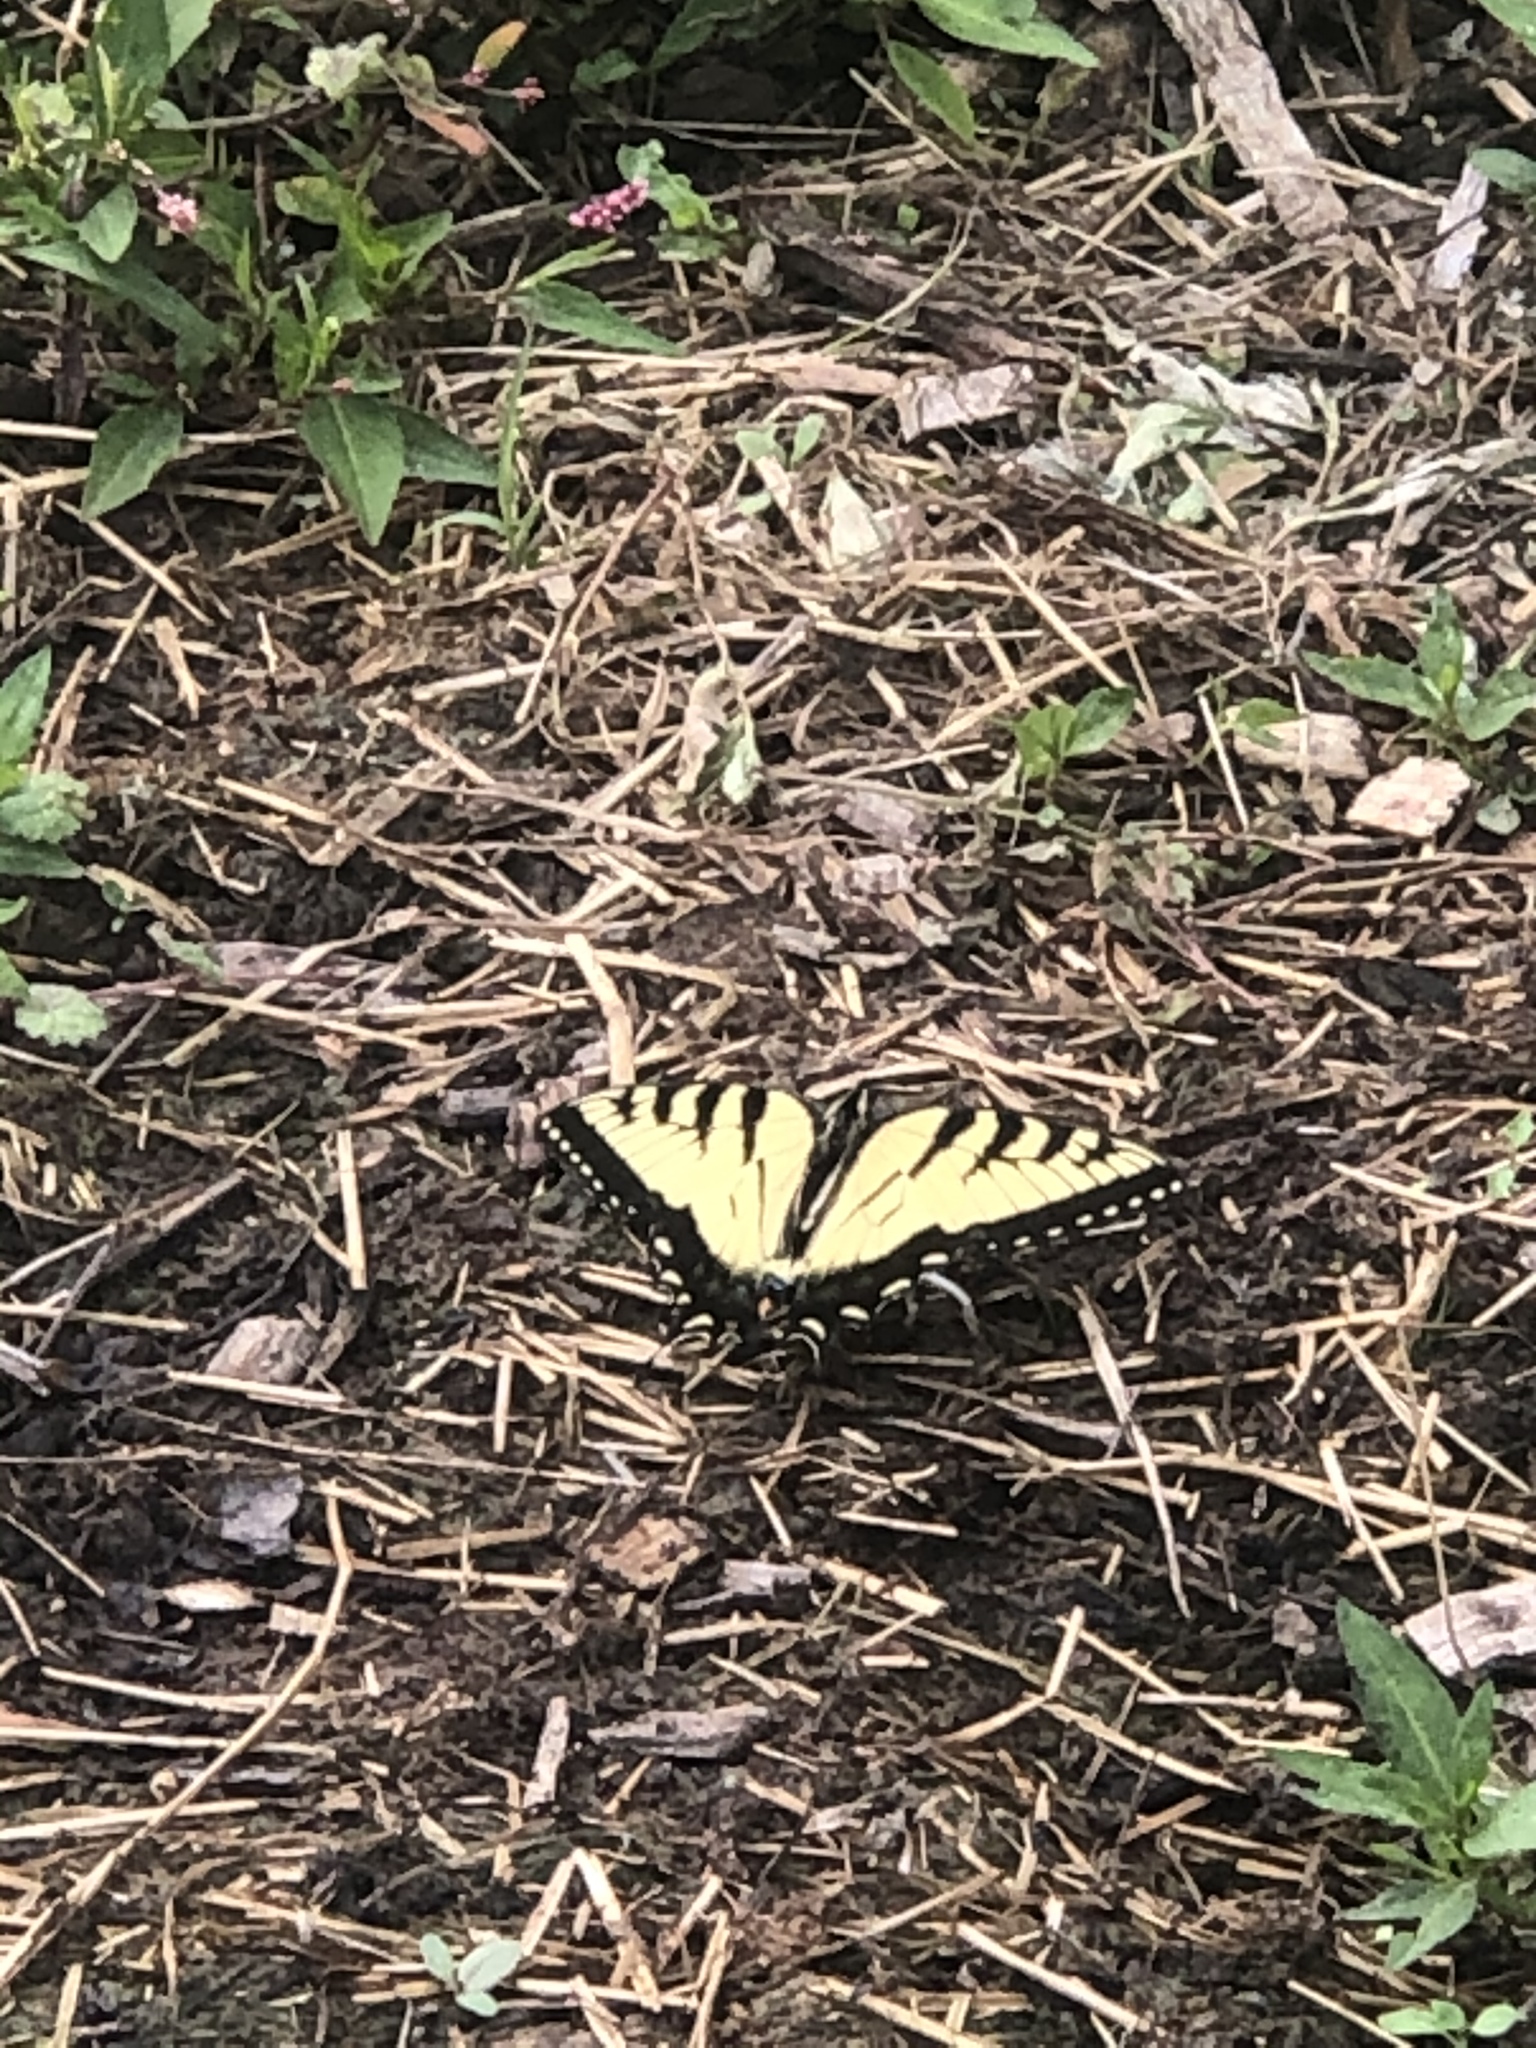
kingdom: Animalia
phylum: Arthropoda
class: Insecta
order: Lepidoptera
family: Papilionidae
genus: Papilio
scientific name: Papilio glaucus
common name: Tiger swallowtail
